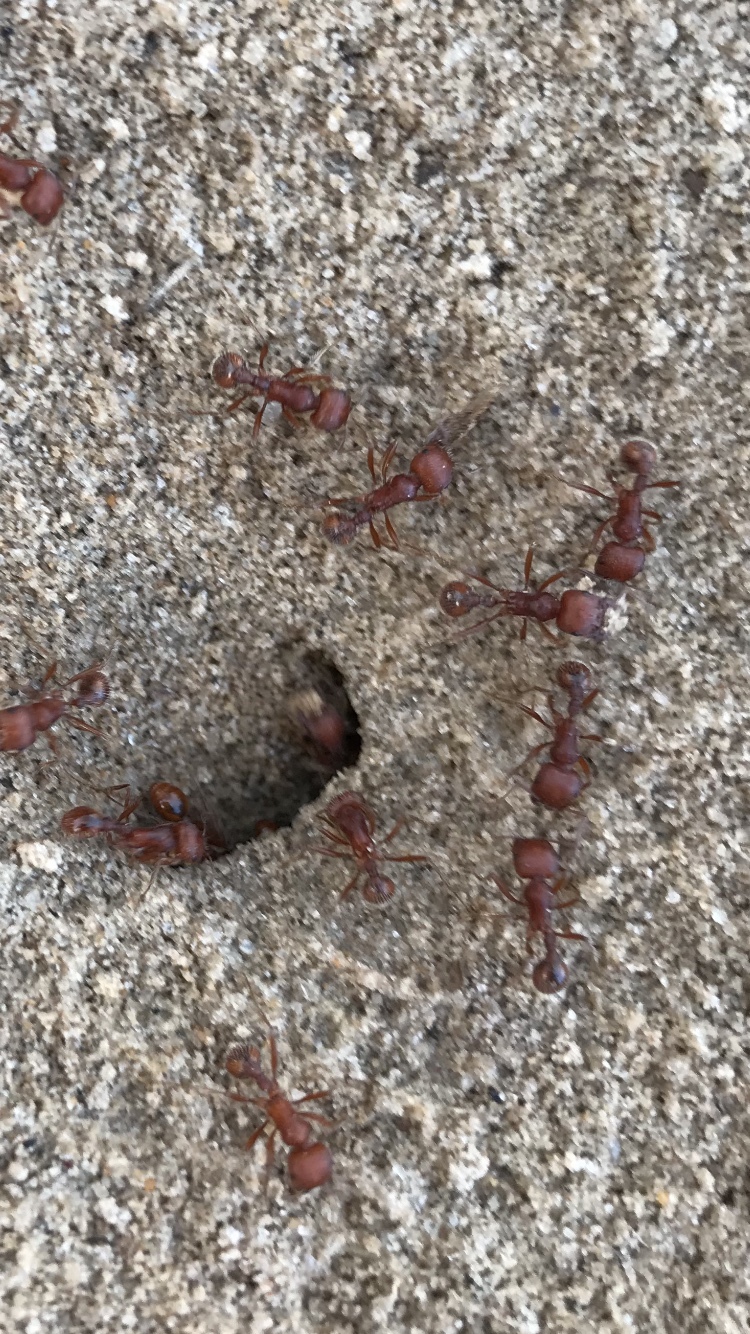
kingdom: Animalia
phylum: Arthropoda
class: Insecta
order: Hymenoptera
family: Formicidae
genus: Pogonomyrmex
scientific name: Pogonomyrmex comanche
